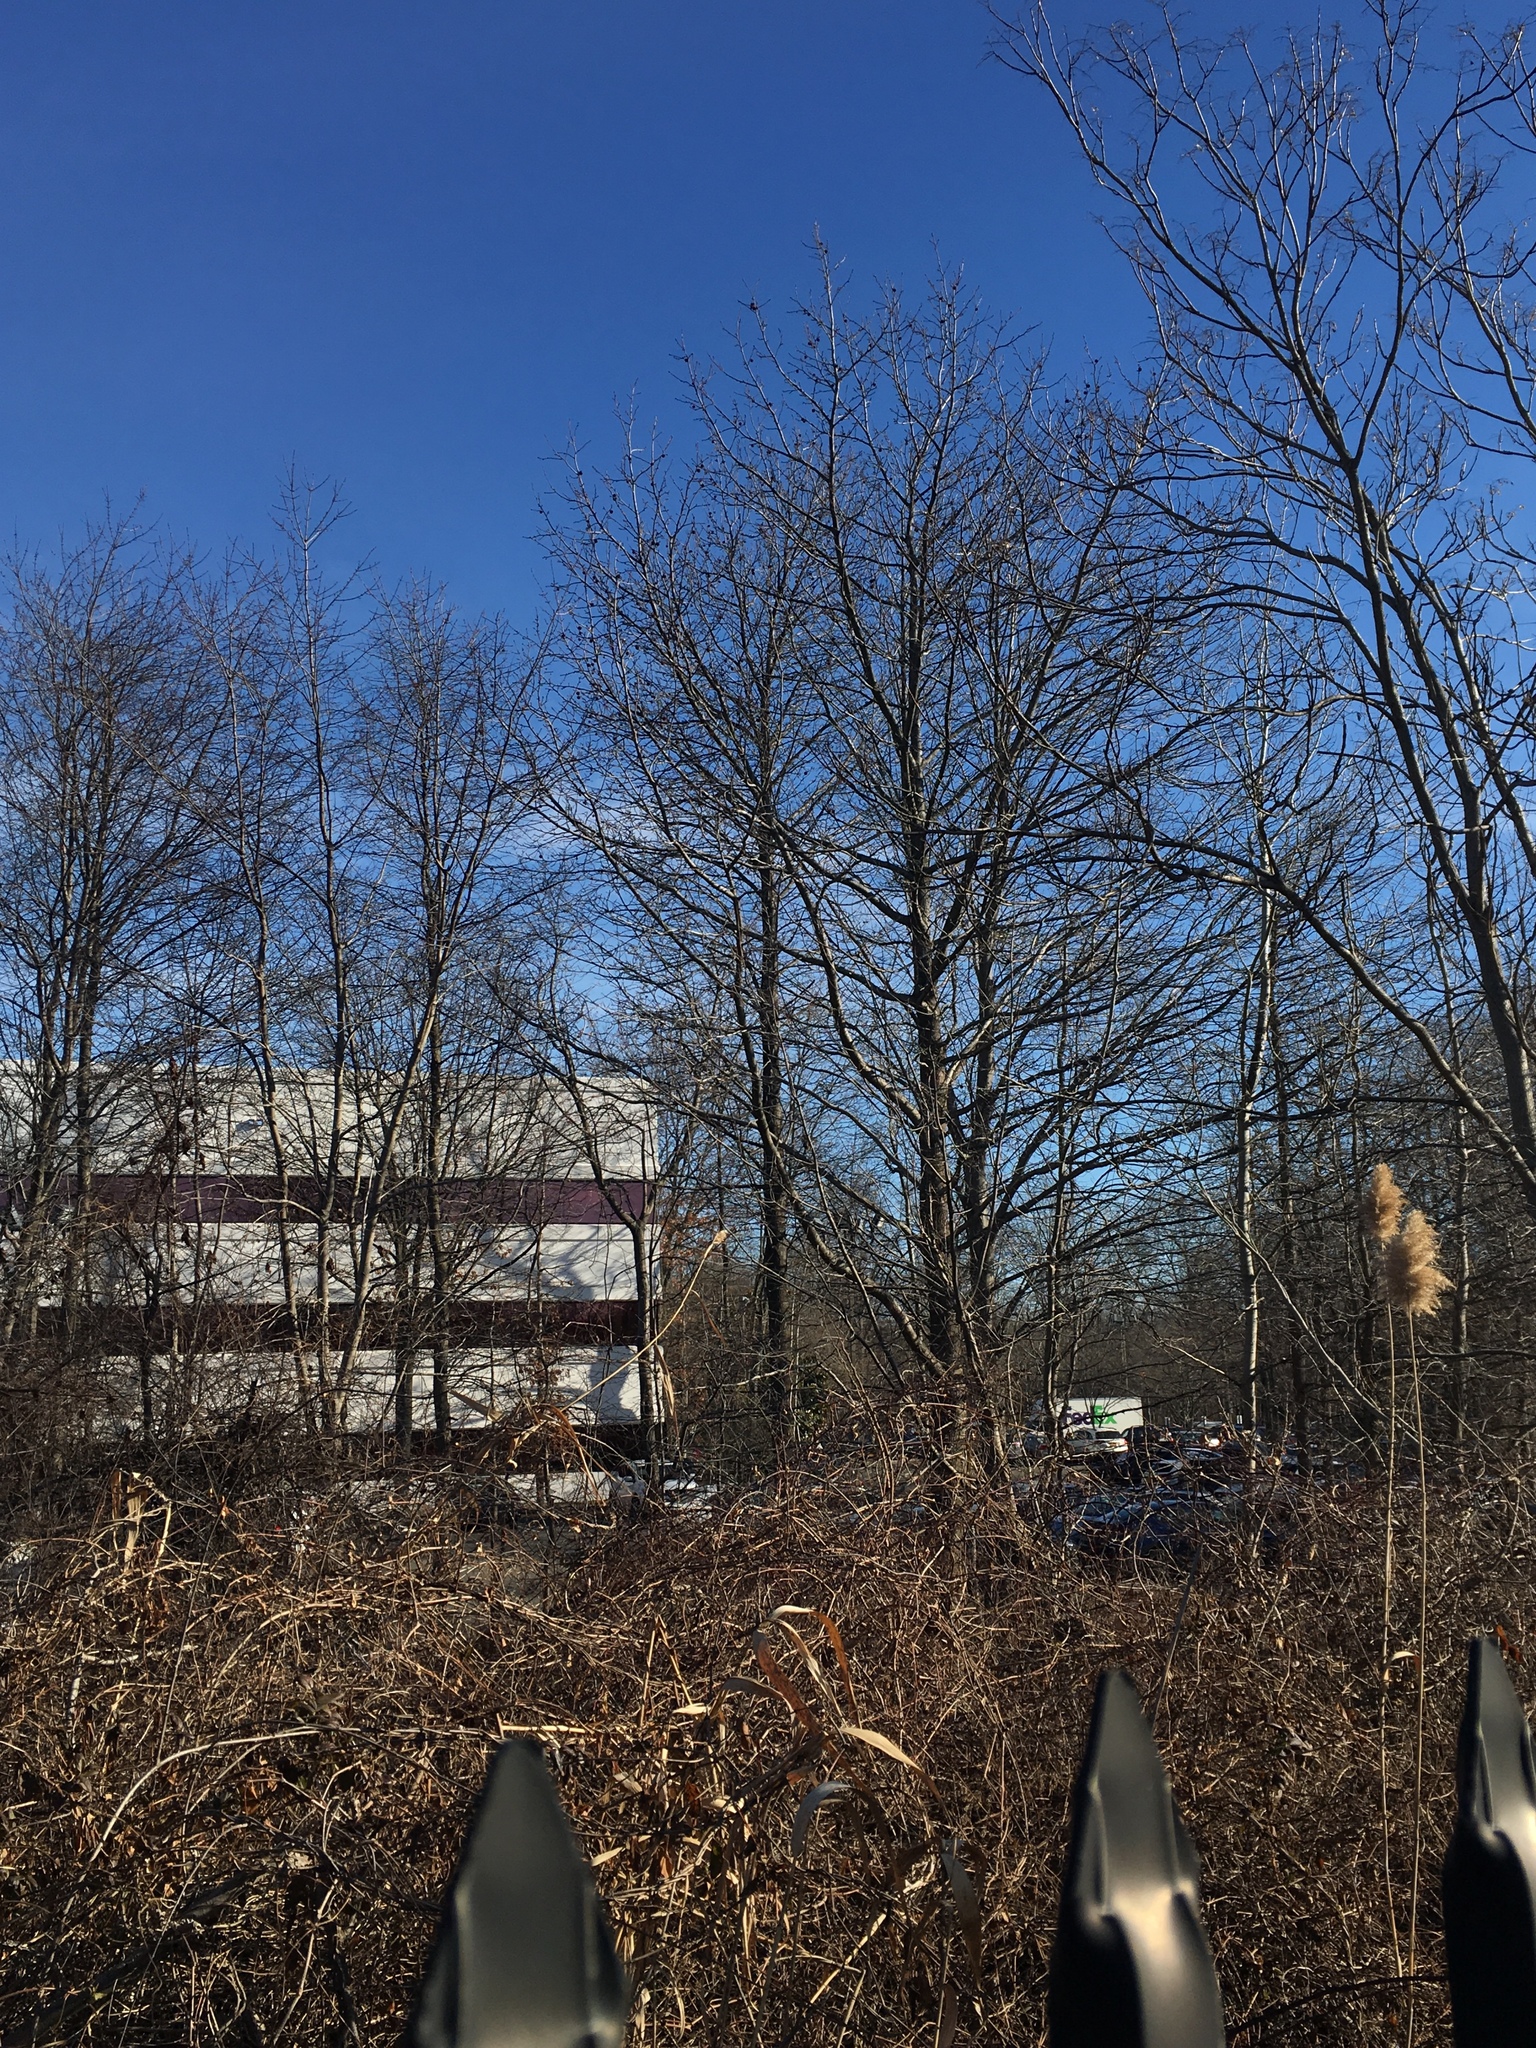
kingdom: Plantae
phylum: Tracheophyta
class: Magnoliopsida
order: Saxifragales
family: Altingiaceae
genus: Liquidambar
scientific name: Liquidambar styraciflua
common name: Sweet gum
